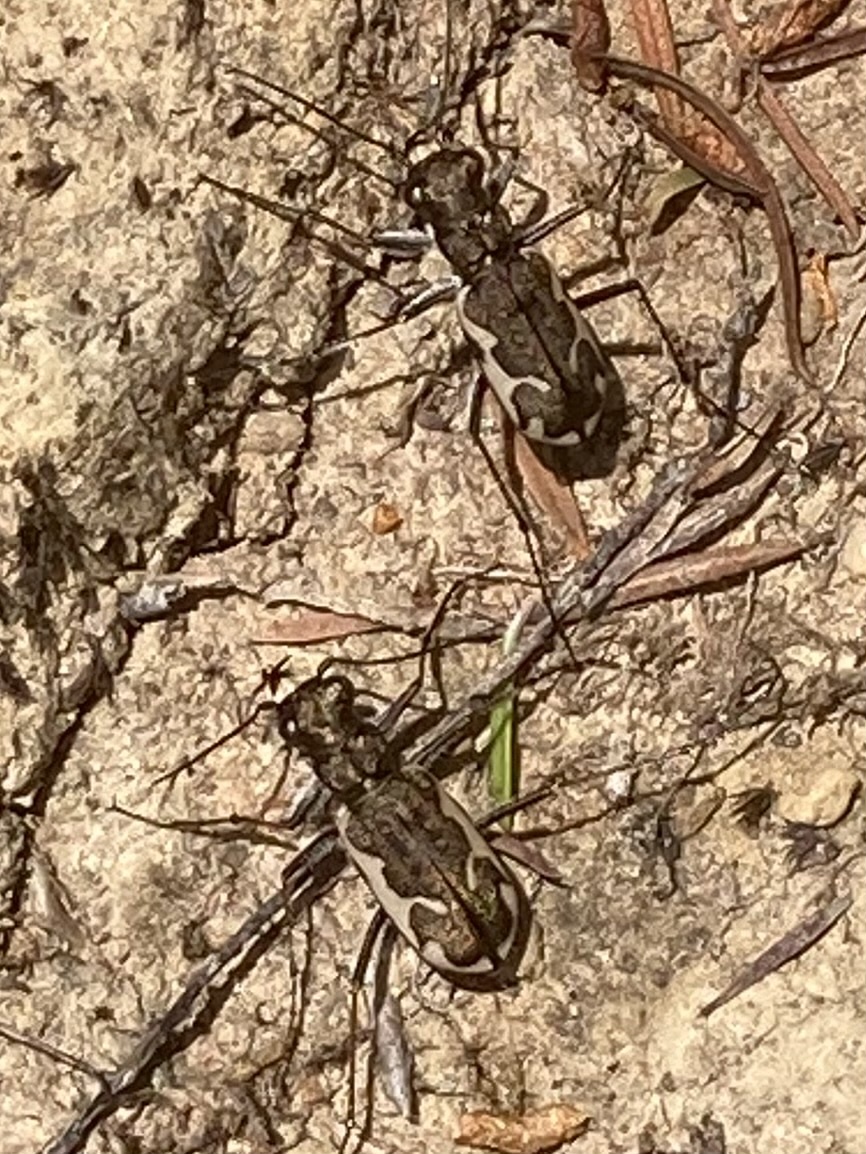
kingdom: Animalia
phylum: Arthropoda
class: Insecta
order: Coleoptera
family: Carabidae
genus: Neocicindela
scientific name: Neocicindela tuberculata
